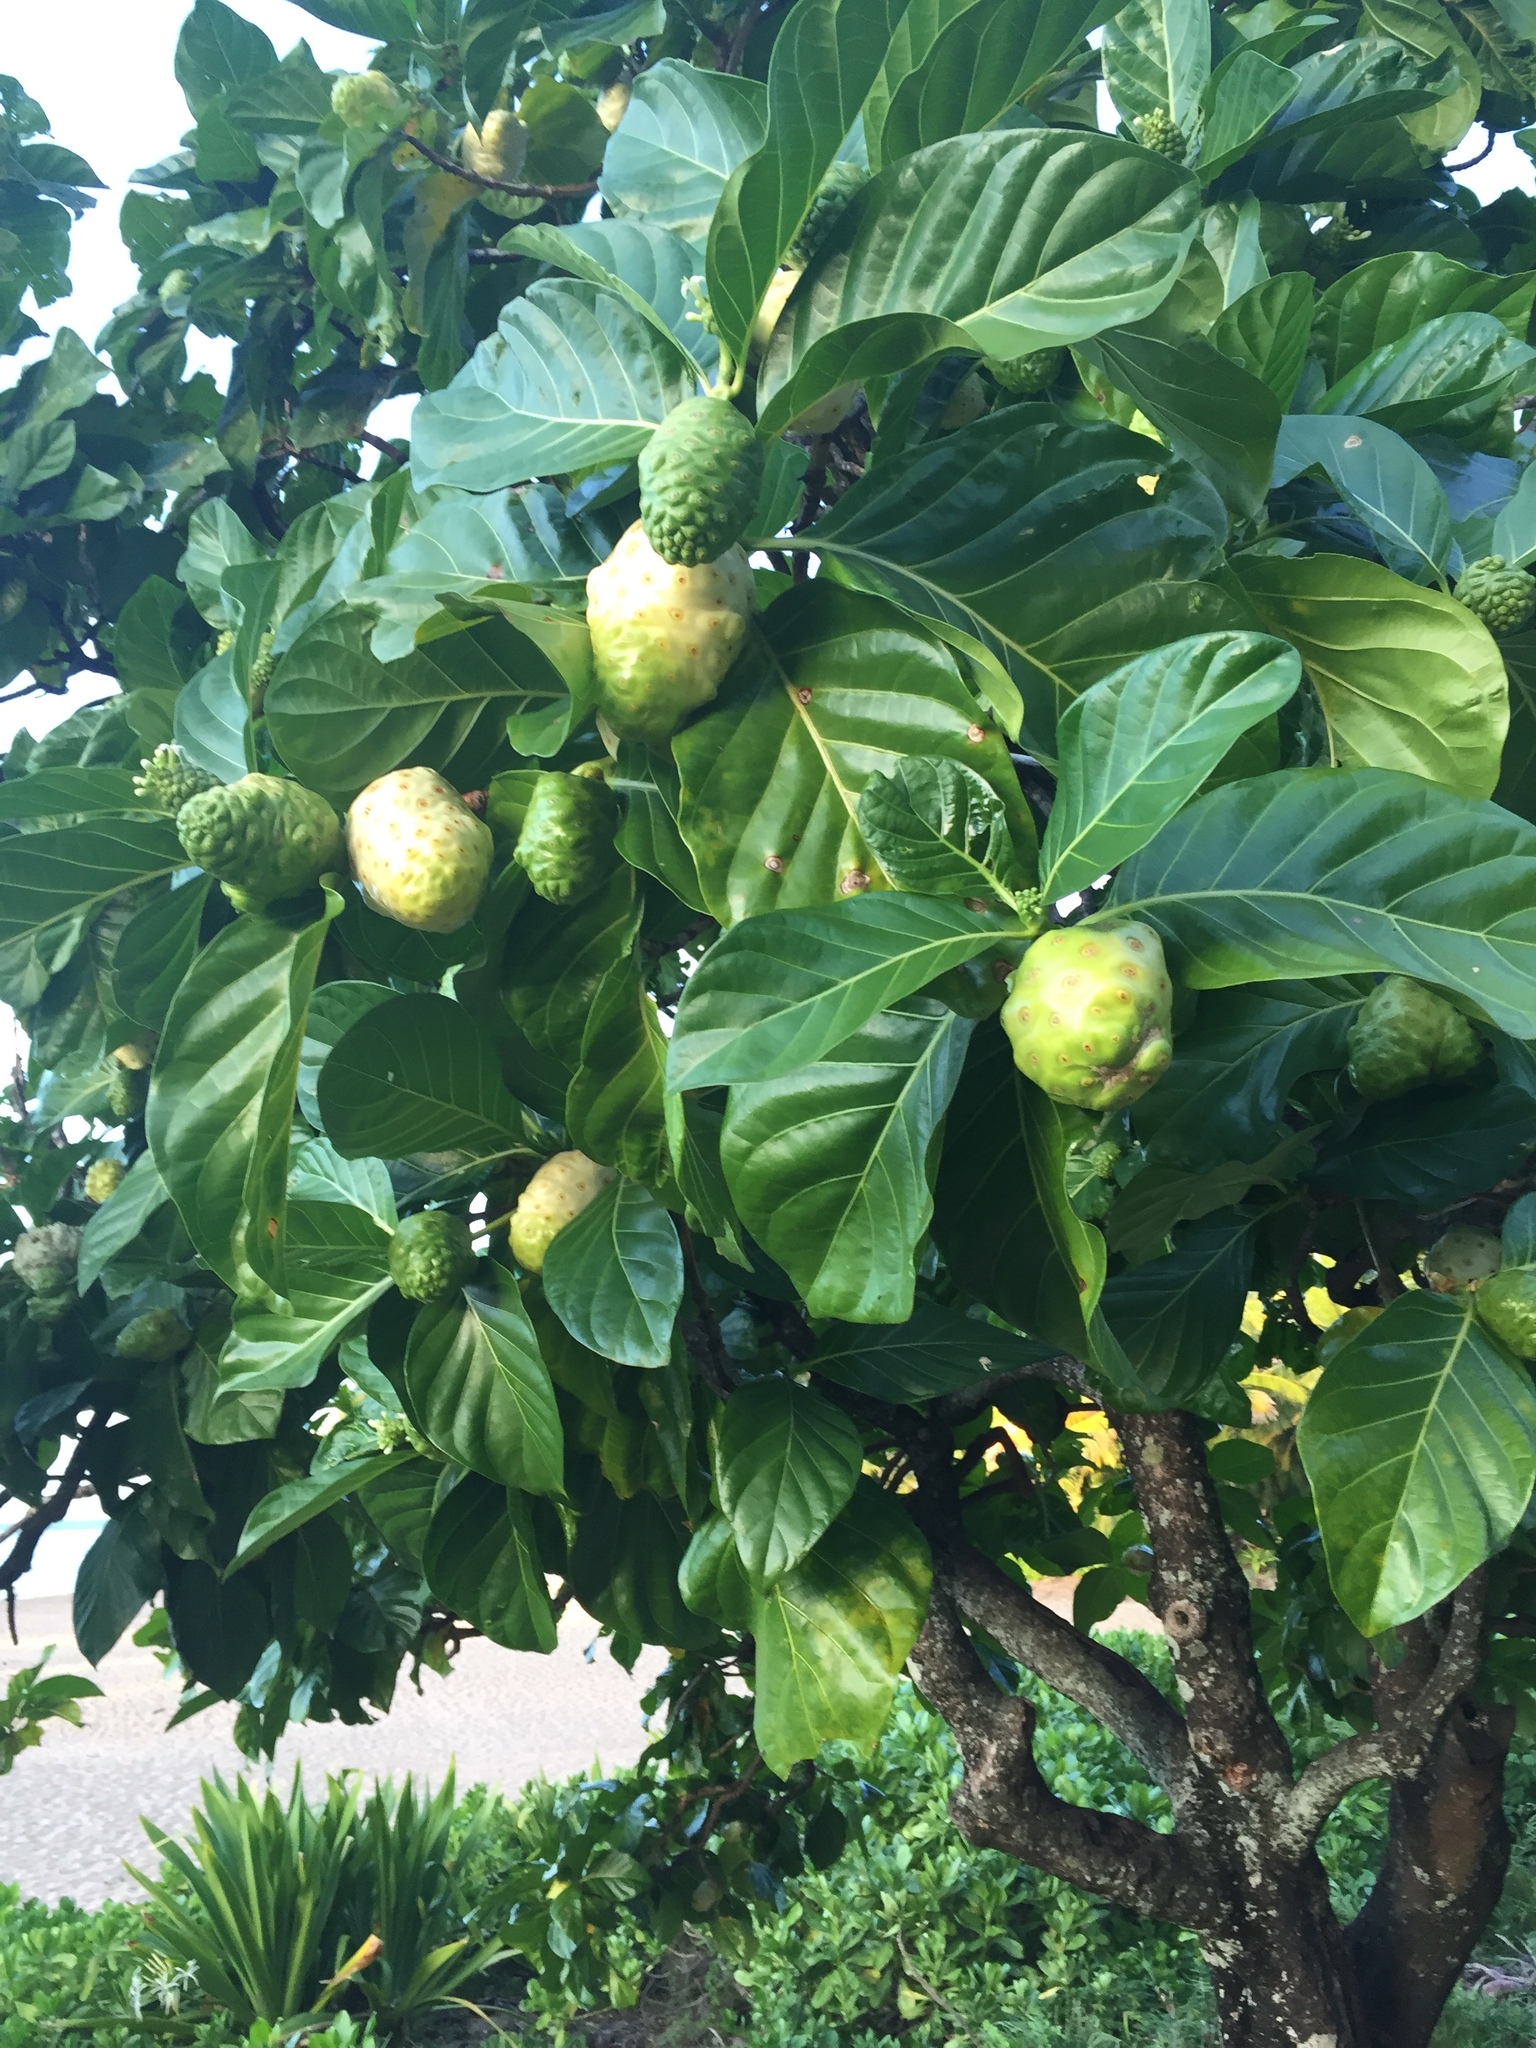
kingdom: Plantae
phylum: Tracheophyta
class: Magnoliopsida
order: Gentianales
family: Rubiaceae
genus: Morinda
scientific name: Morinda citrifolia
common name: Indian-mulberry
